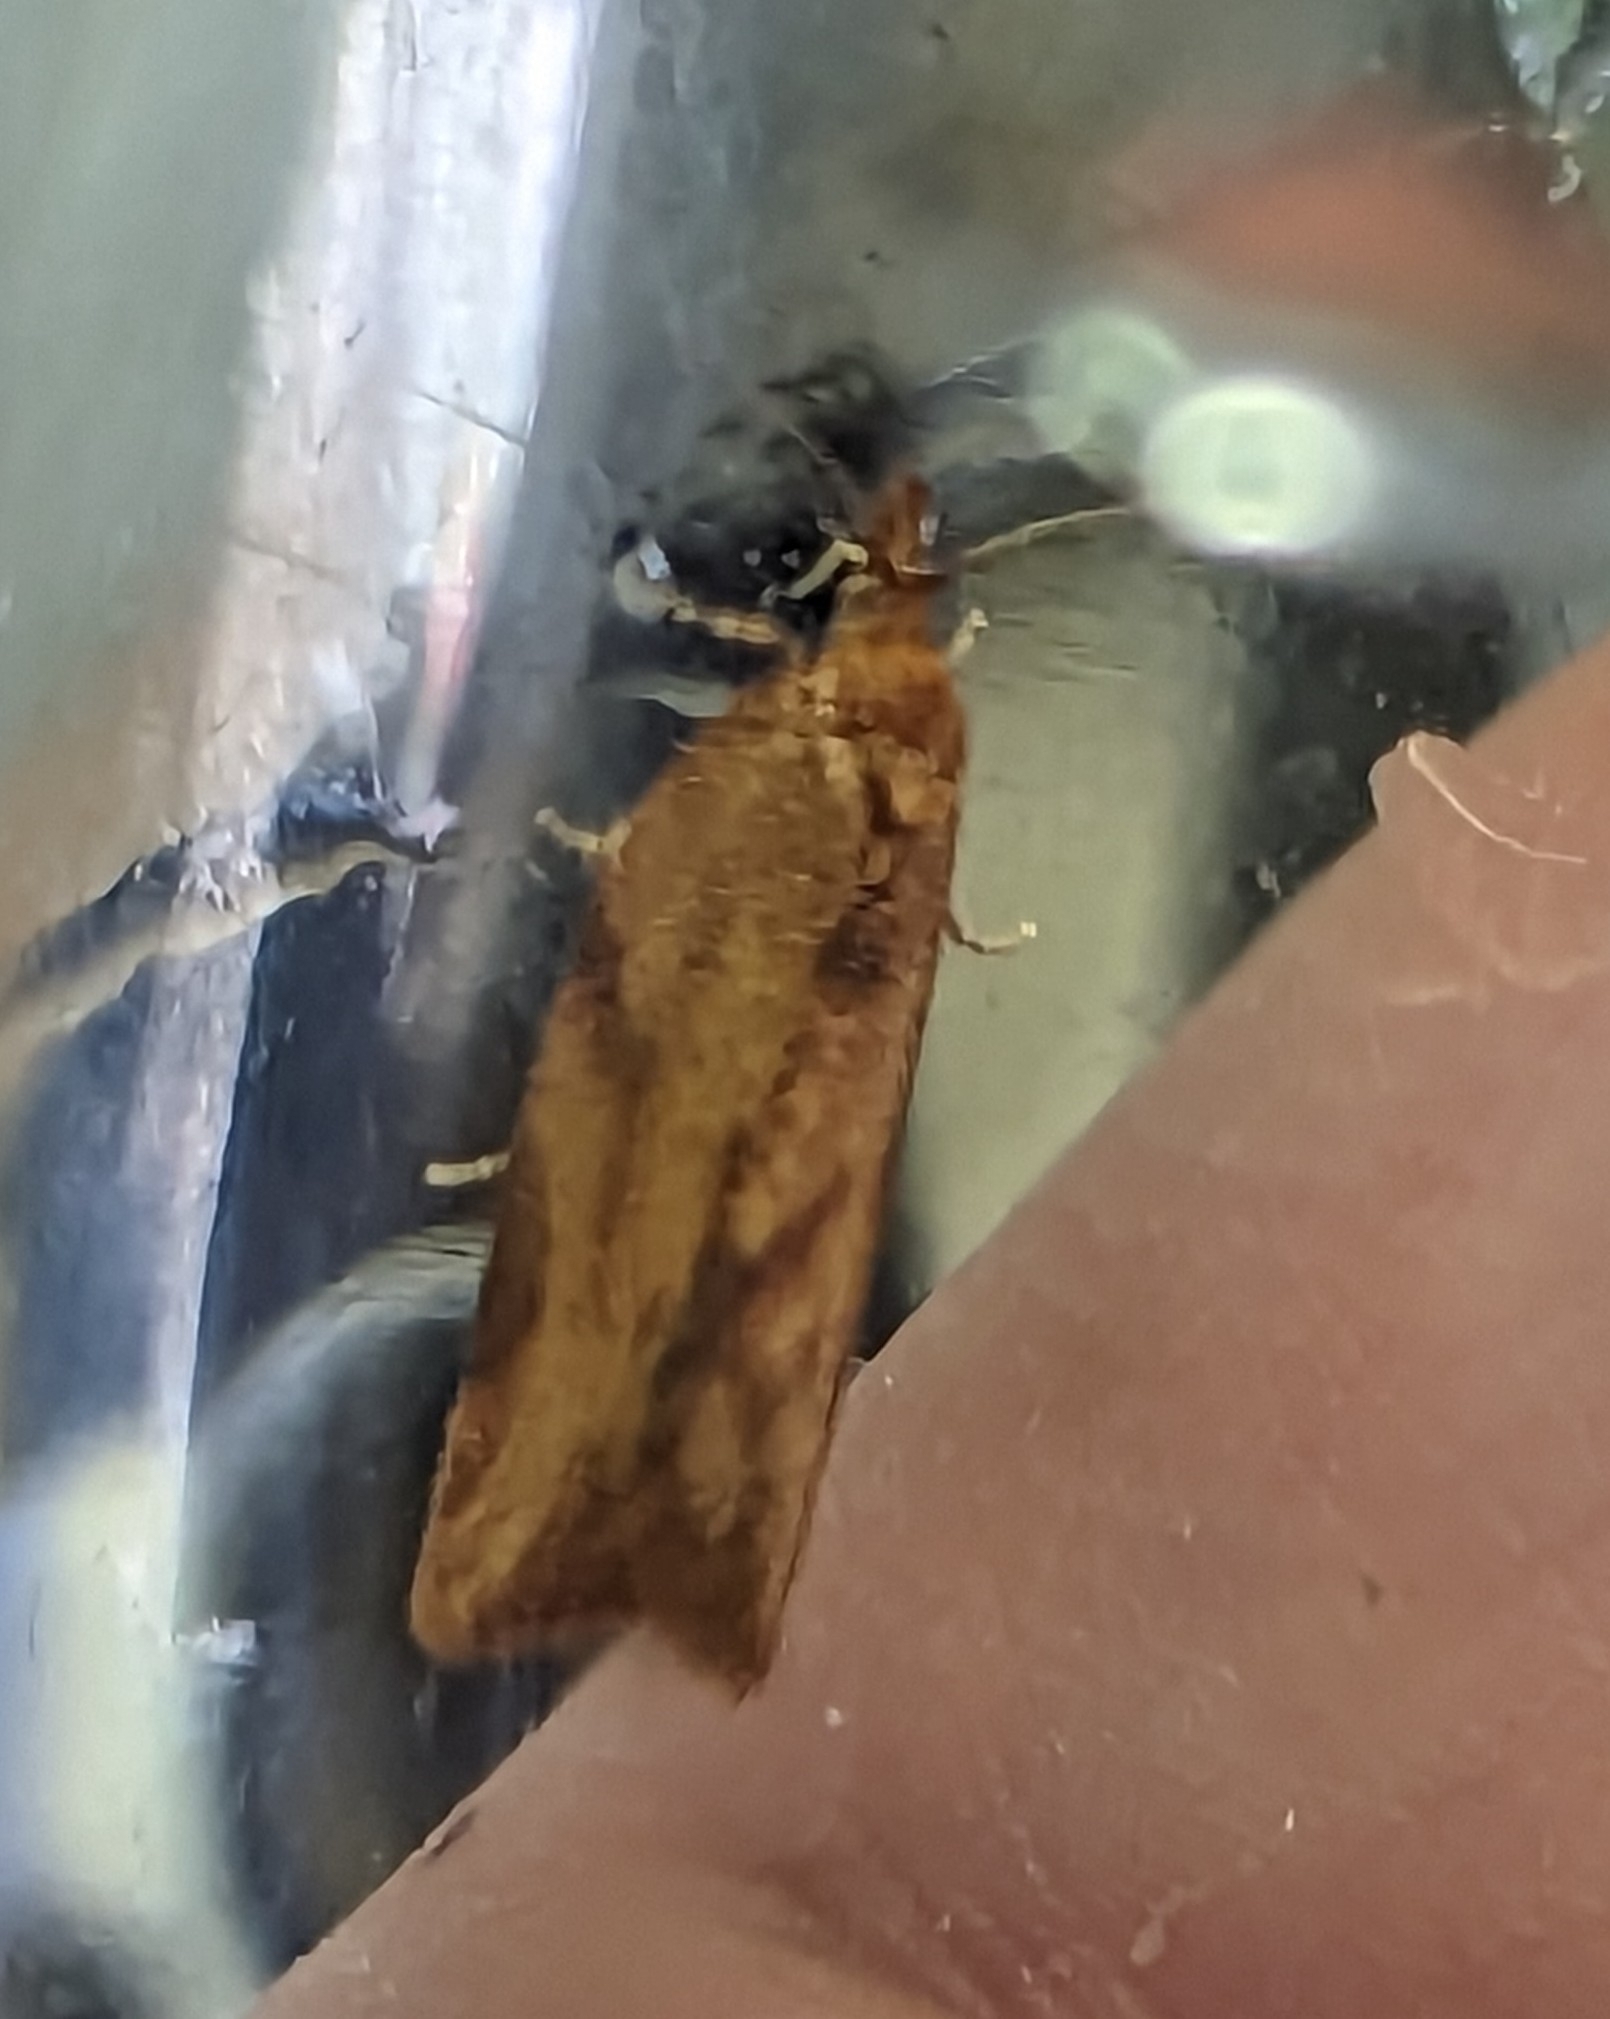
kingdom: Animalia
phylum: Arthropoda
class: Insecta
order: Lepidoptera
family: Tortricidae
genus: Epiphyas
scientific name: Epiphyas postvittana
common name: Light brown apple moth
